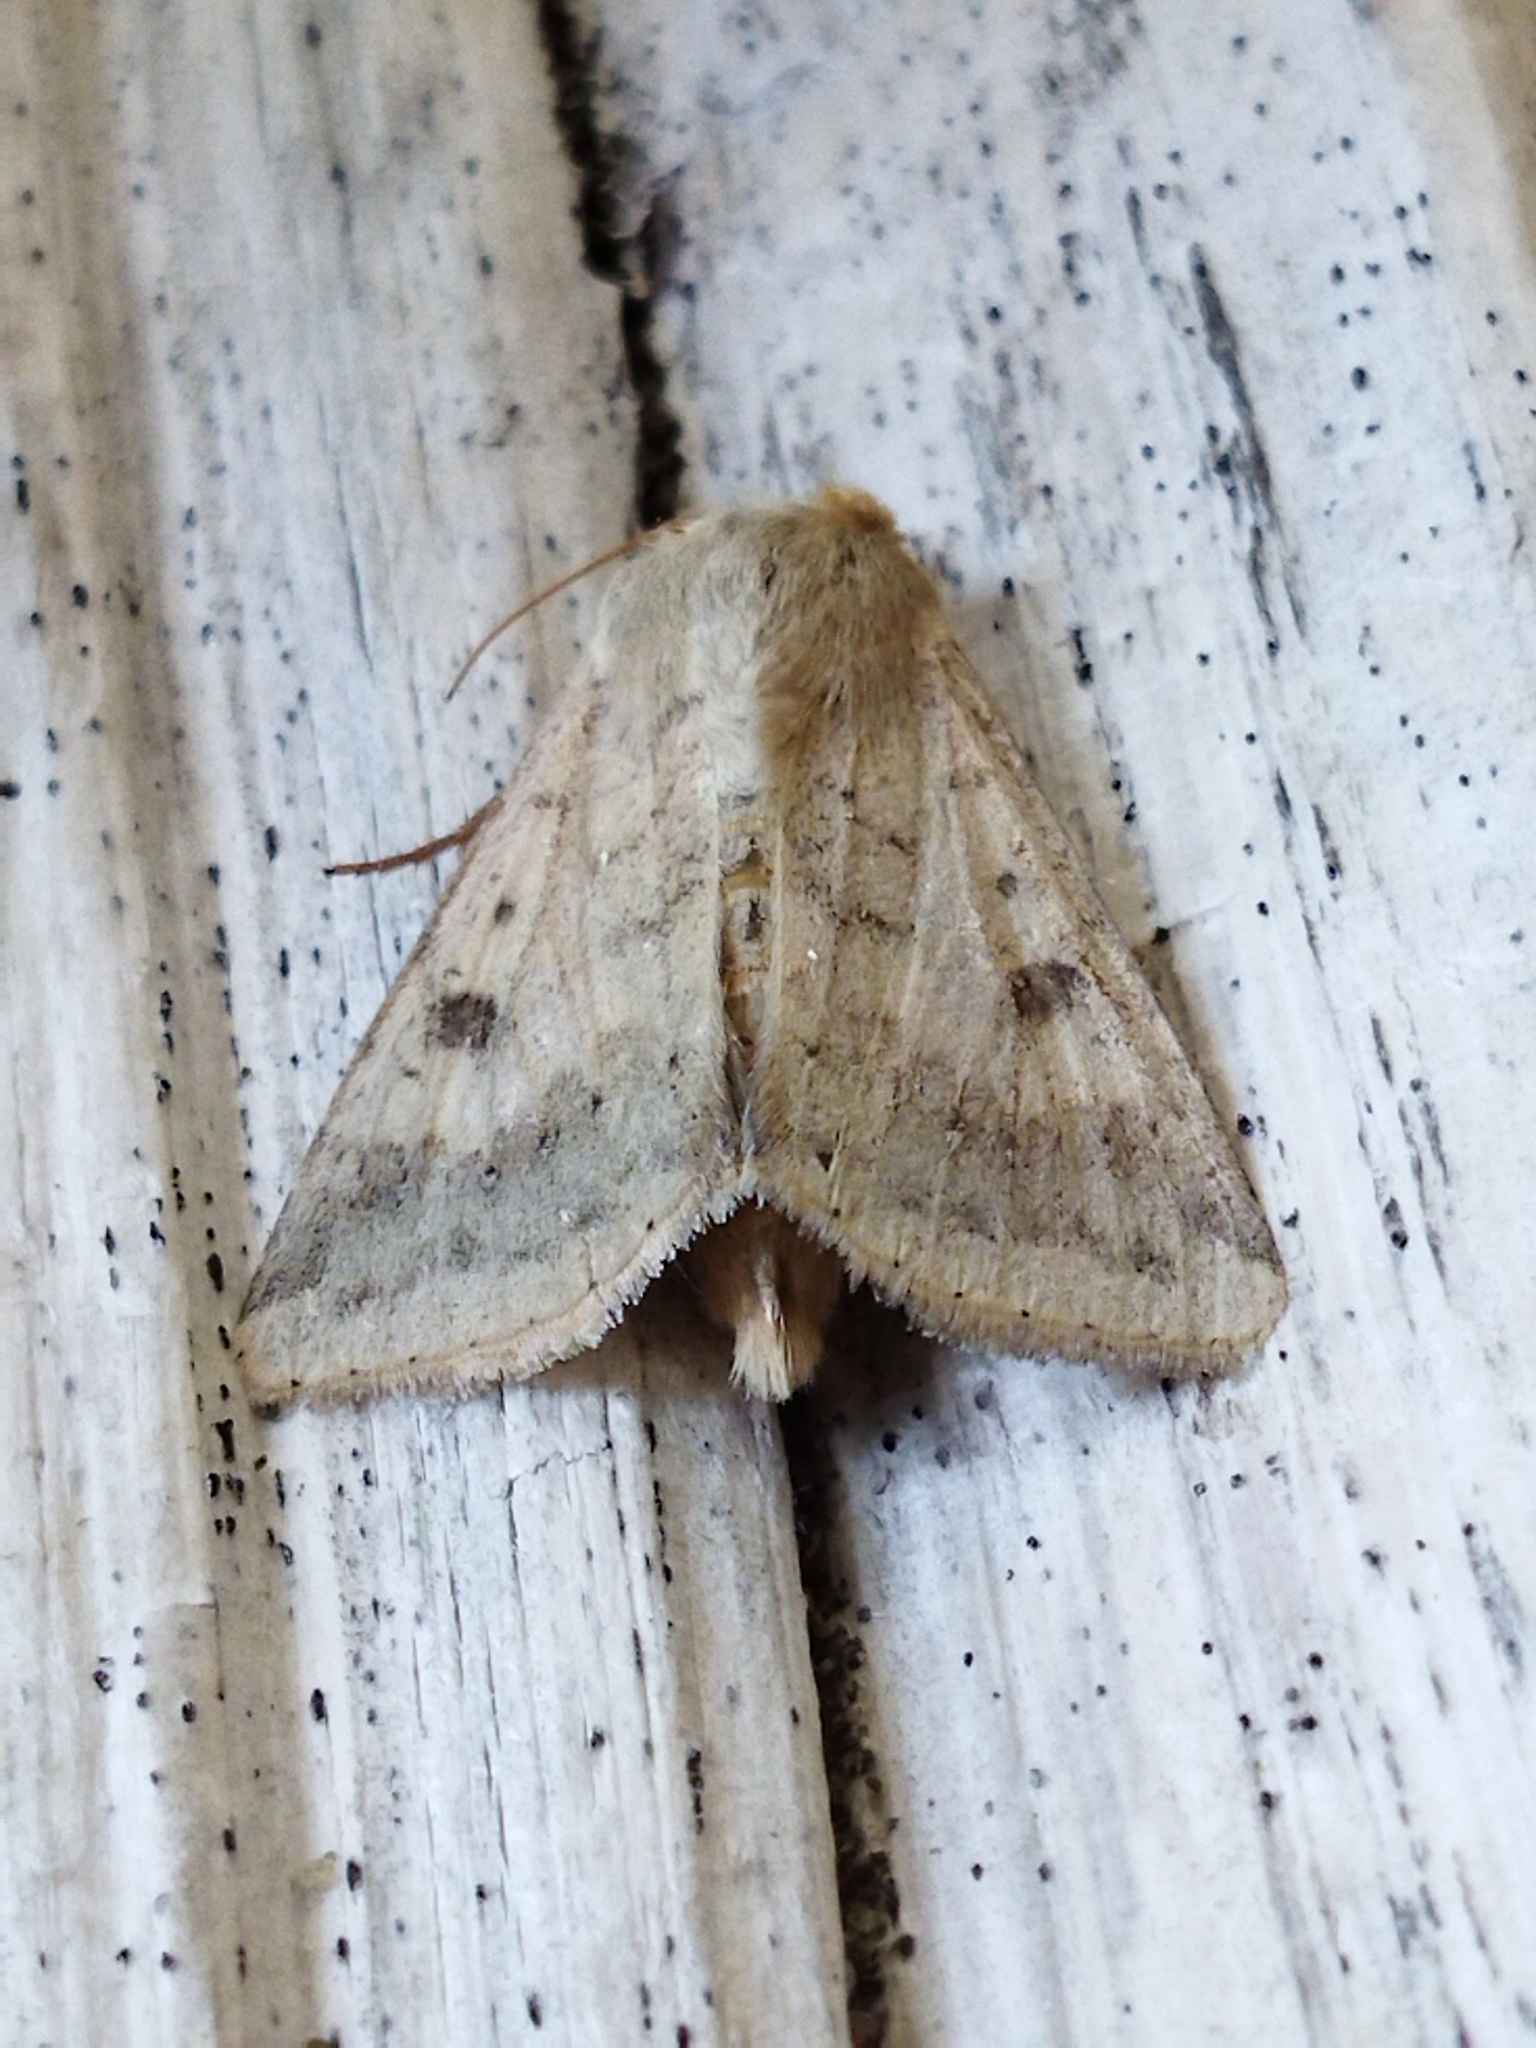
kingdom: Animalia
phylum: Arthropoda
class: Insecta
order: Lepidoptera
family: Noctuidae
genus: Helicoverpa
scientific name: Helicoverpa armigera
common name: Cotton bollworm
